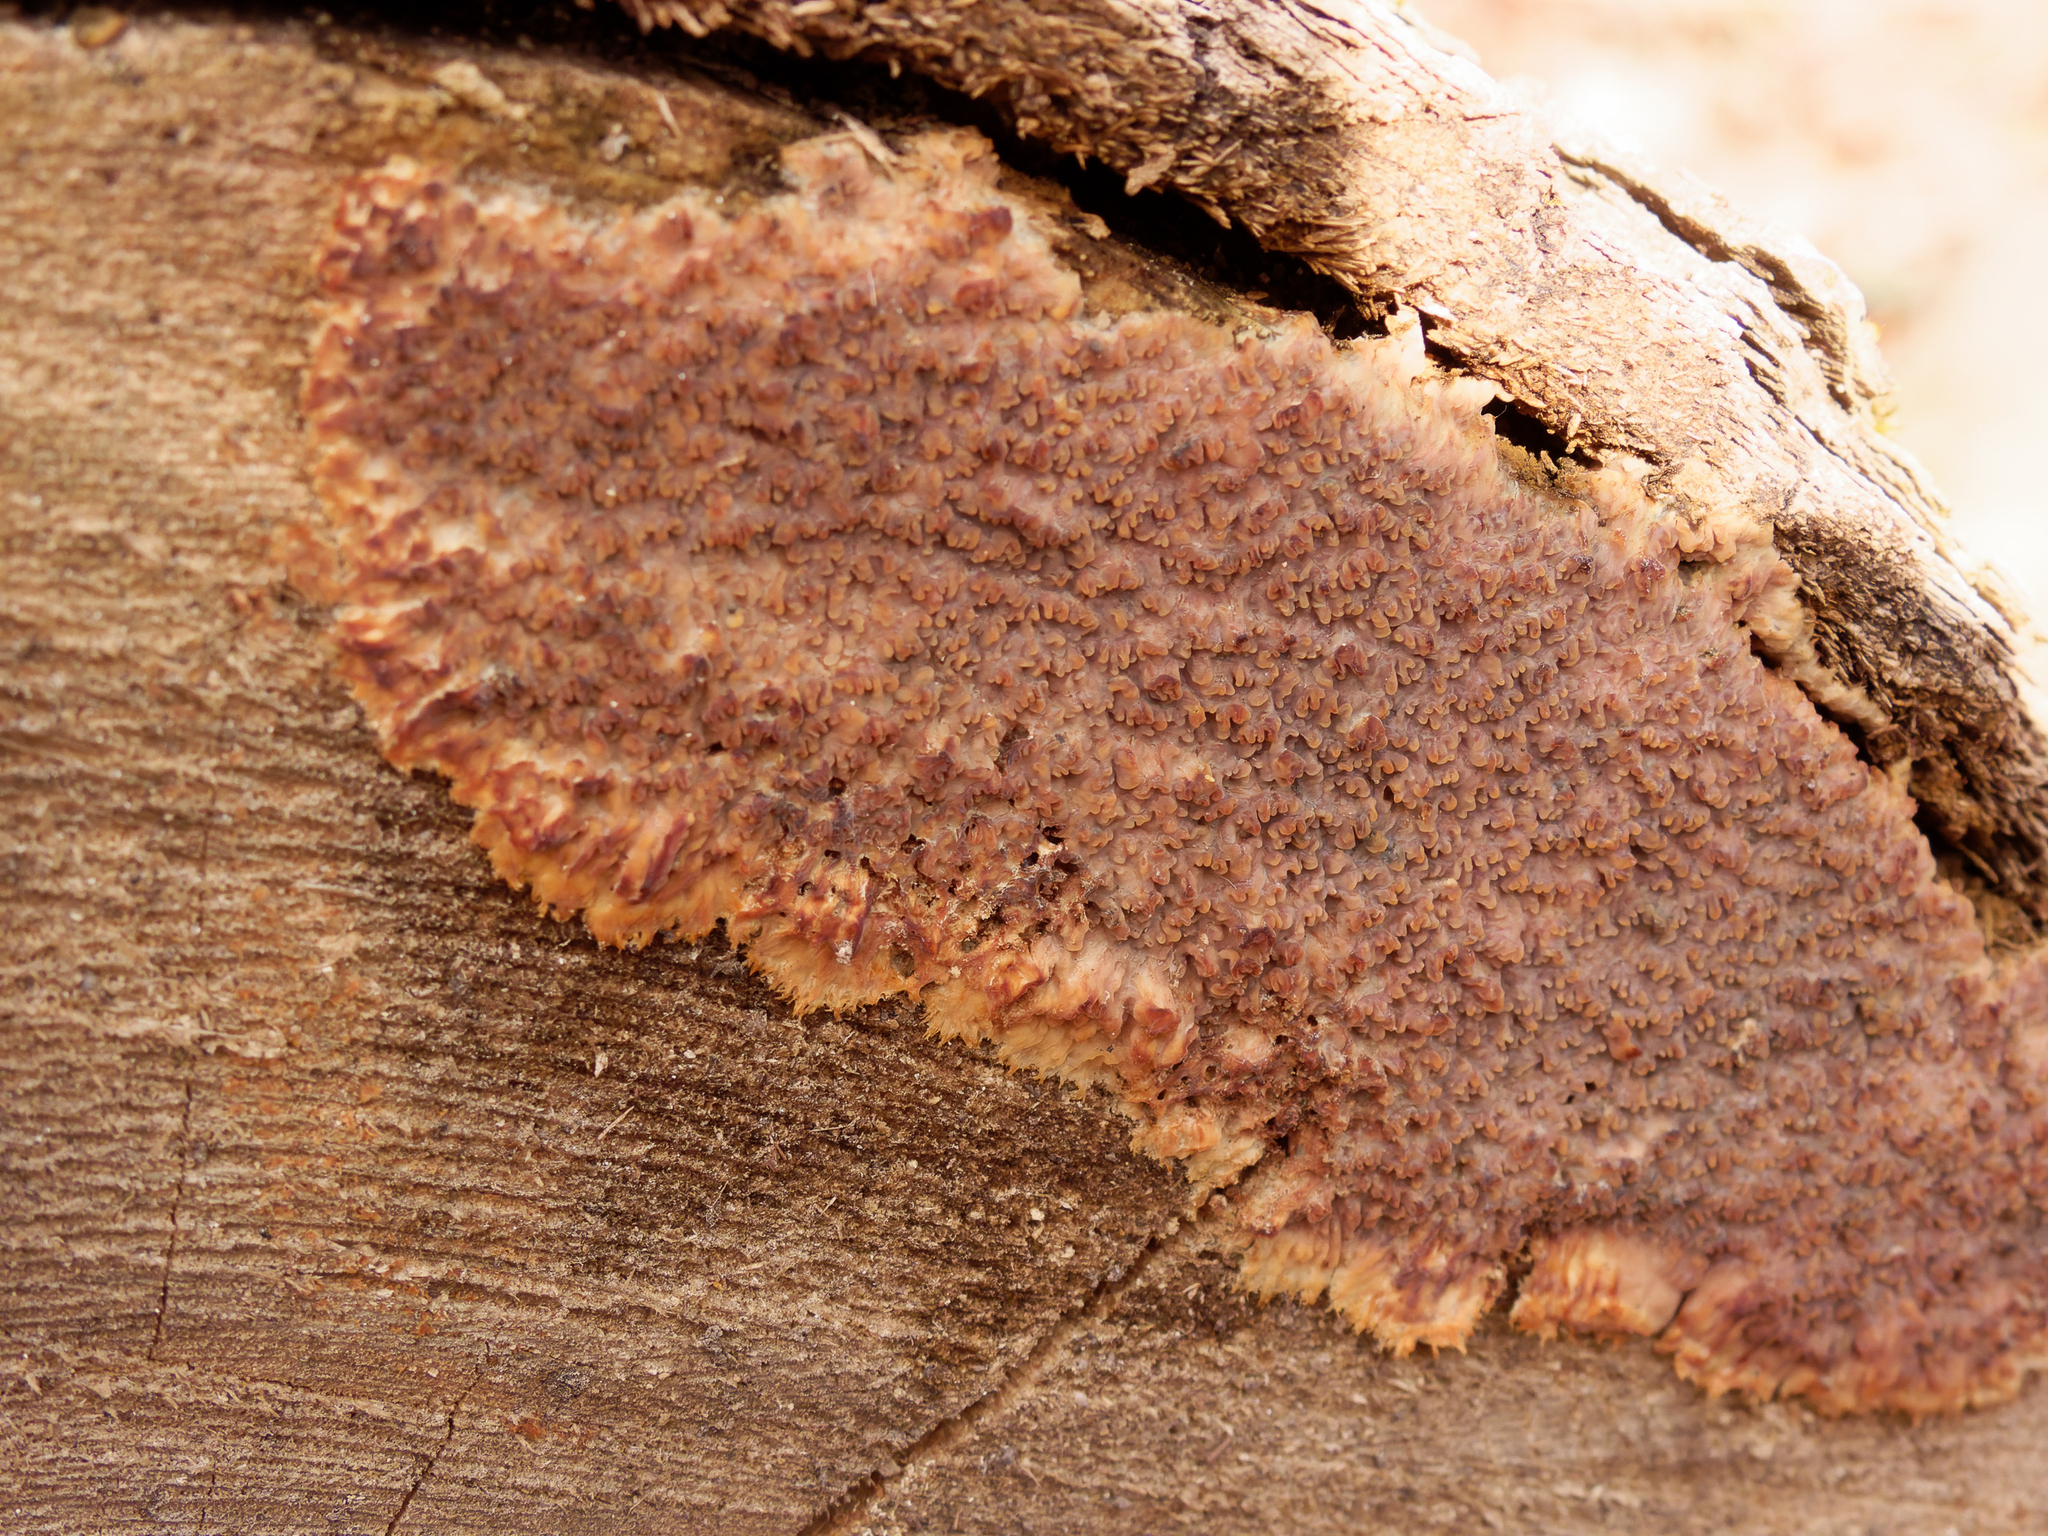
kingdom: Fungi
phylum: Basidiomycota
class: Agaricomycetes
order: Polyporales
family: Meruliaceae
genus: Phlebia
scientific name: Phlebia radiata
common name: Wrinkled crust
